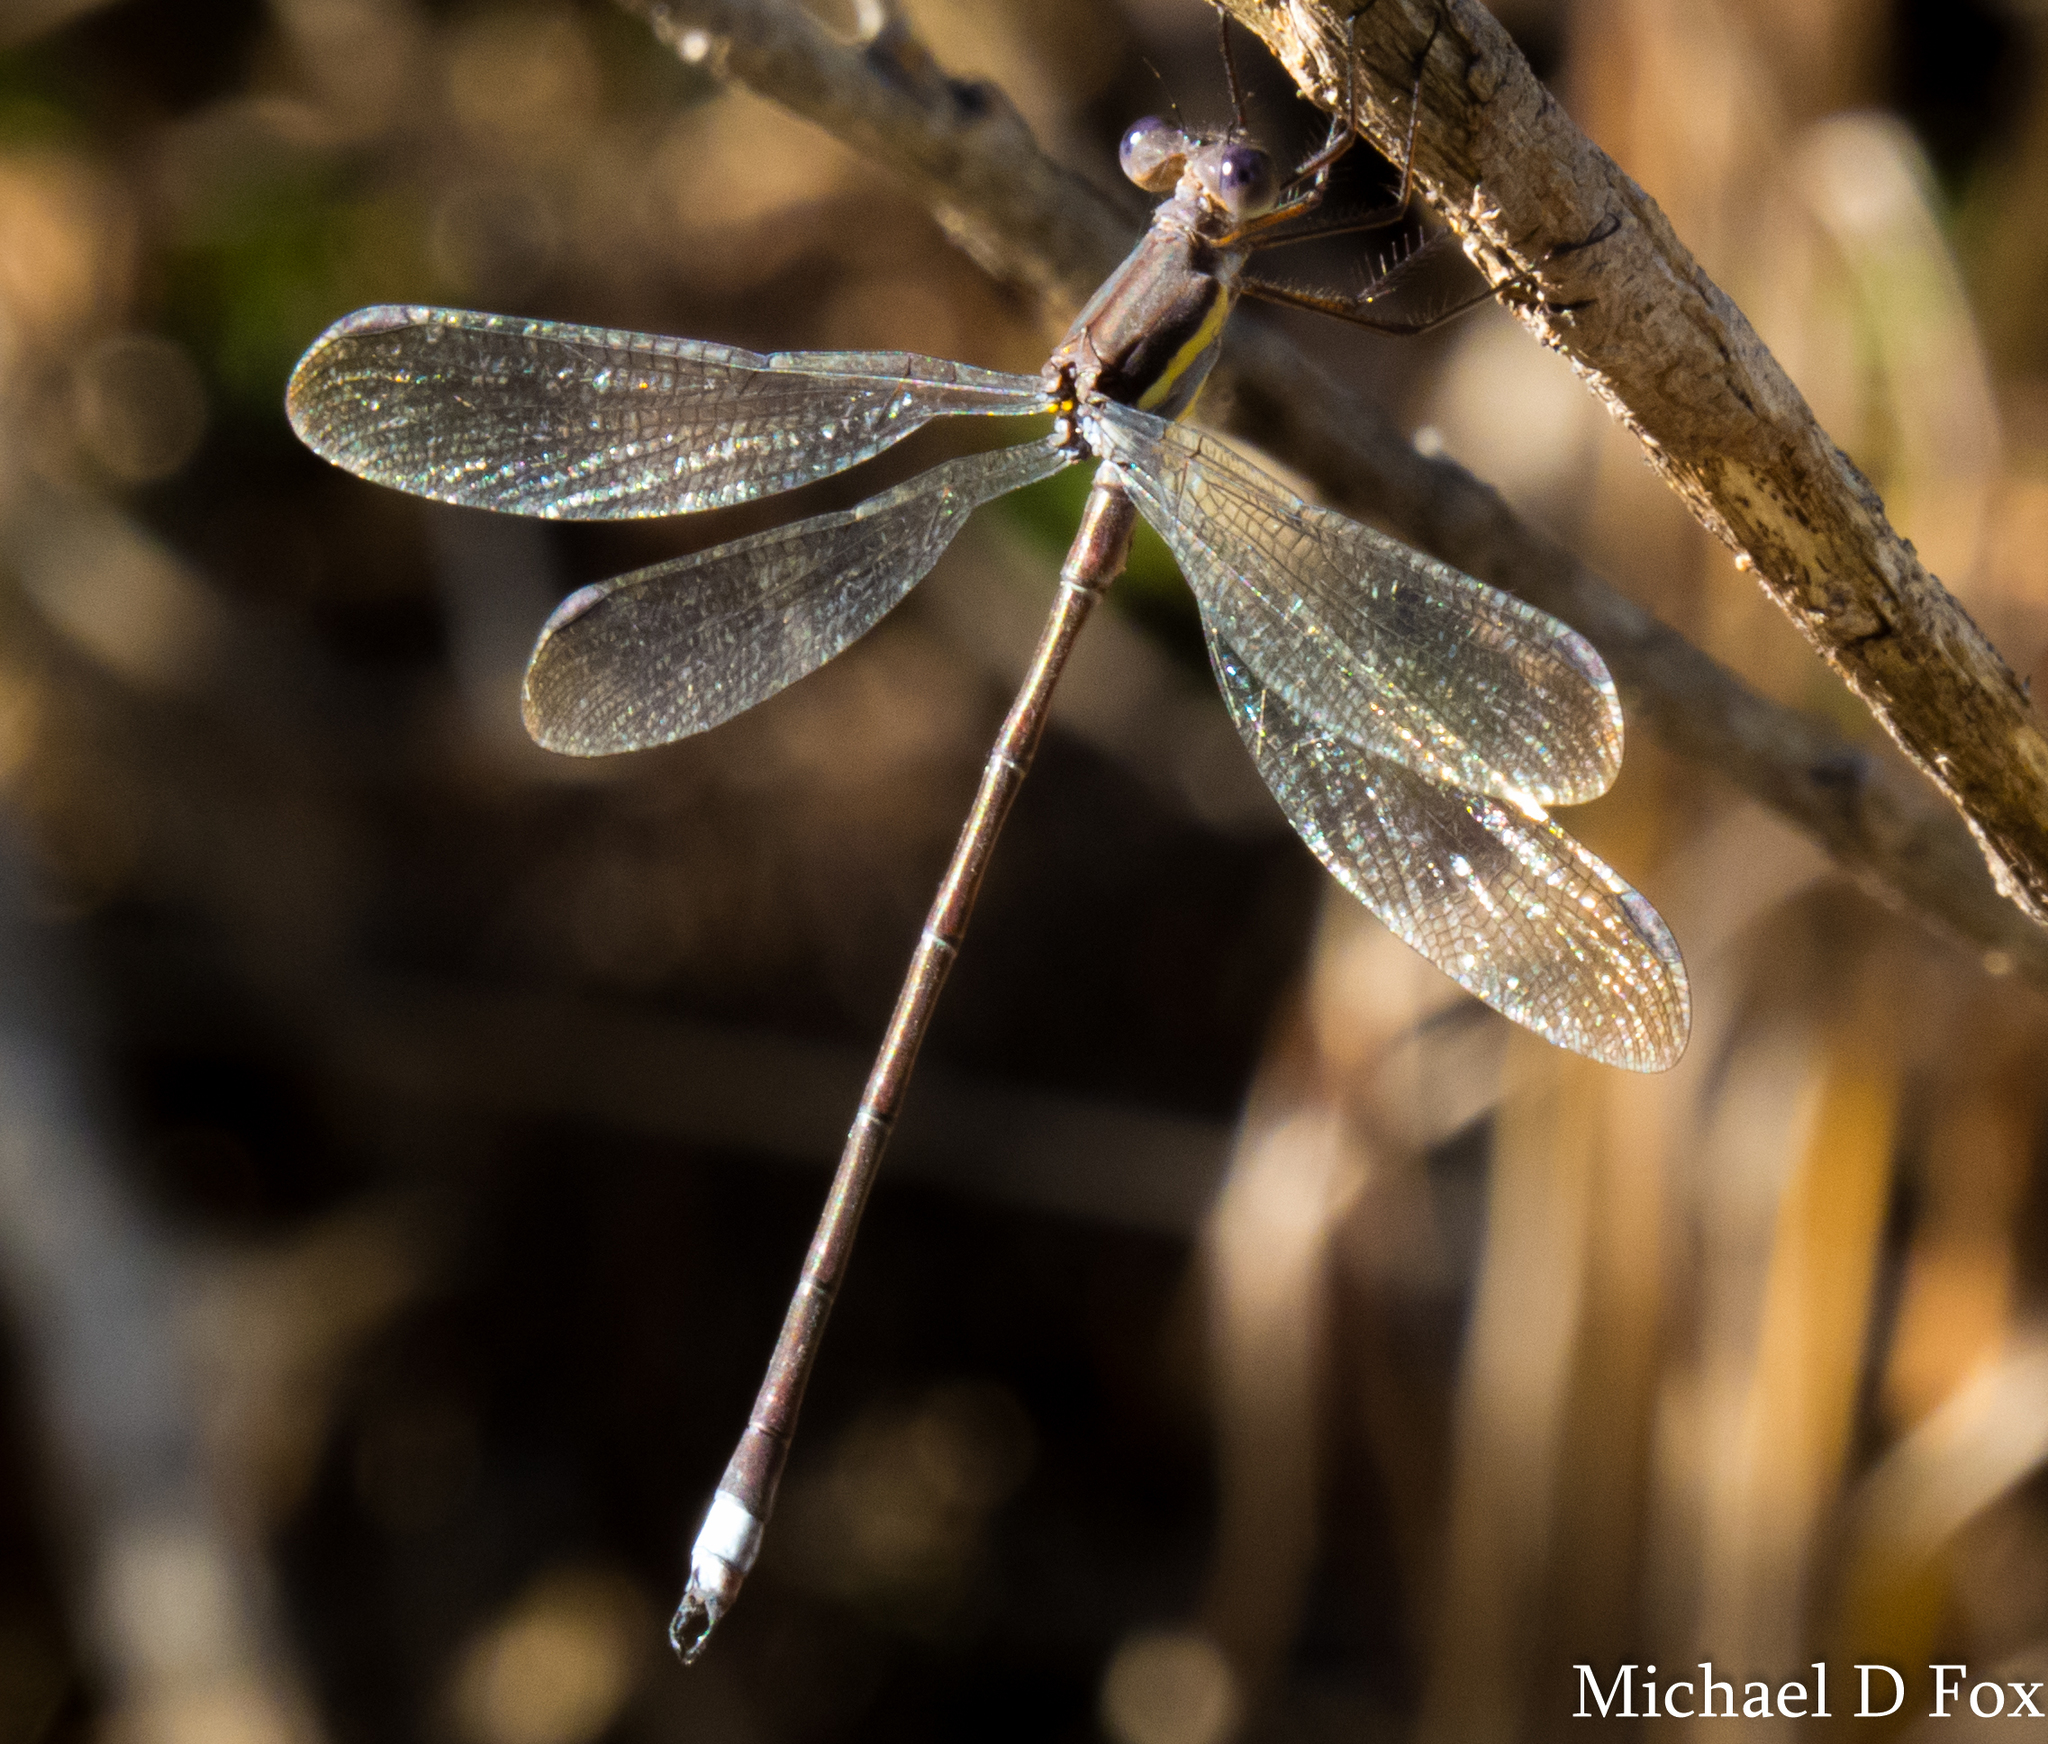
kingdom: Animalia
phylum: Arthropoda
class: Insecta
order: Odonata
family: Lestidae
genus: Archilestes
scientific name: Archilestes grandis
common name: Great spreadwing
